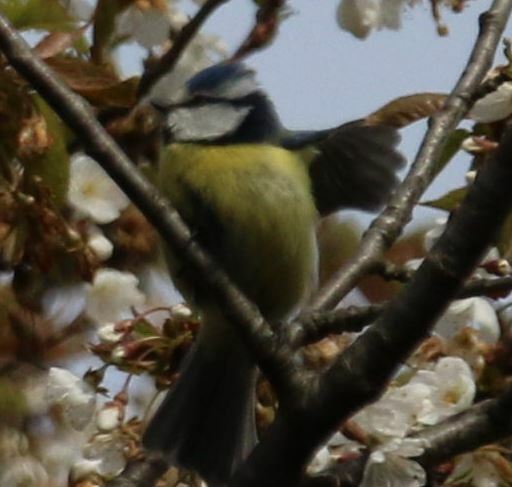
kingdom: Animalia
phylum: Chordata
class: Aves
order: Passeriformes
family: Paridae
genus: Cyanistes
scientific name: Cyanistes caeruleus
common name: Eurasian blue tit
